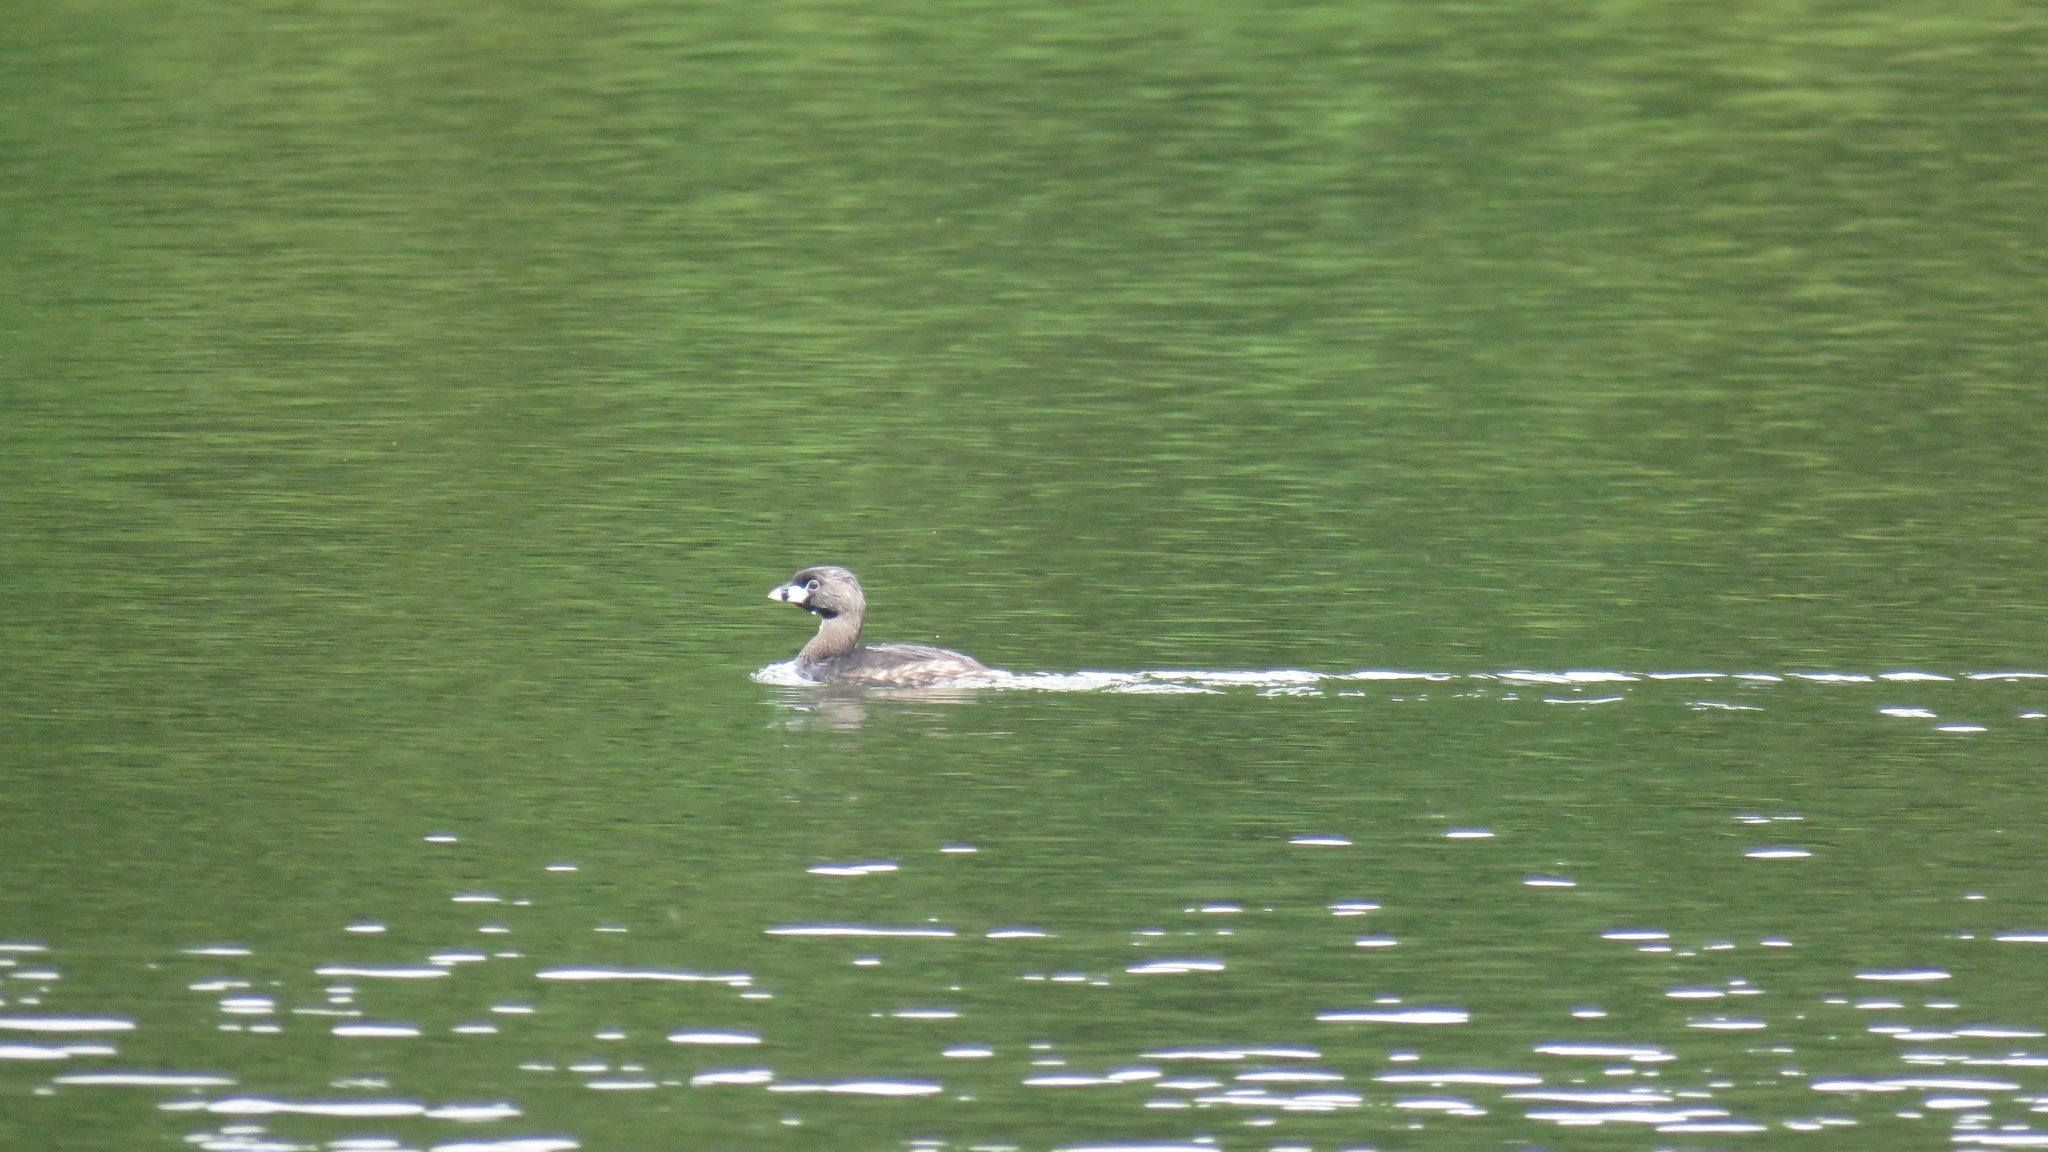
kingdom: Animalia
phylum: Chordata
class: Aves
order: Podicipediformes
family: Podicipedidae
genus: Podilymbus
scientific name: Podilymbus podiceps
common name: Pied-billed grebe
